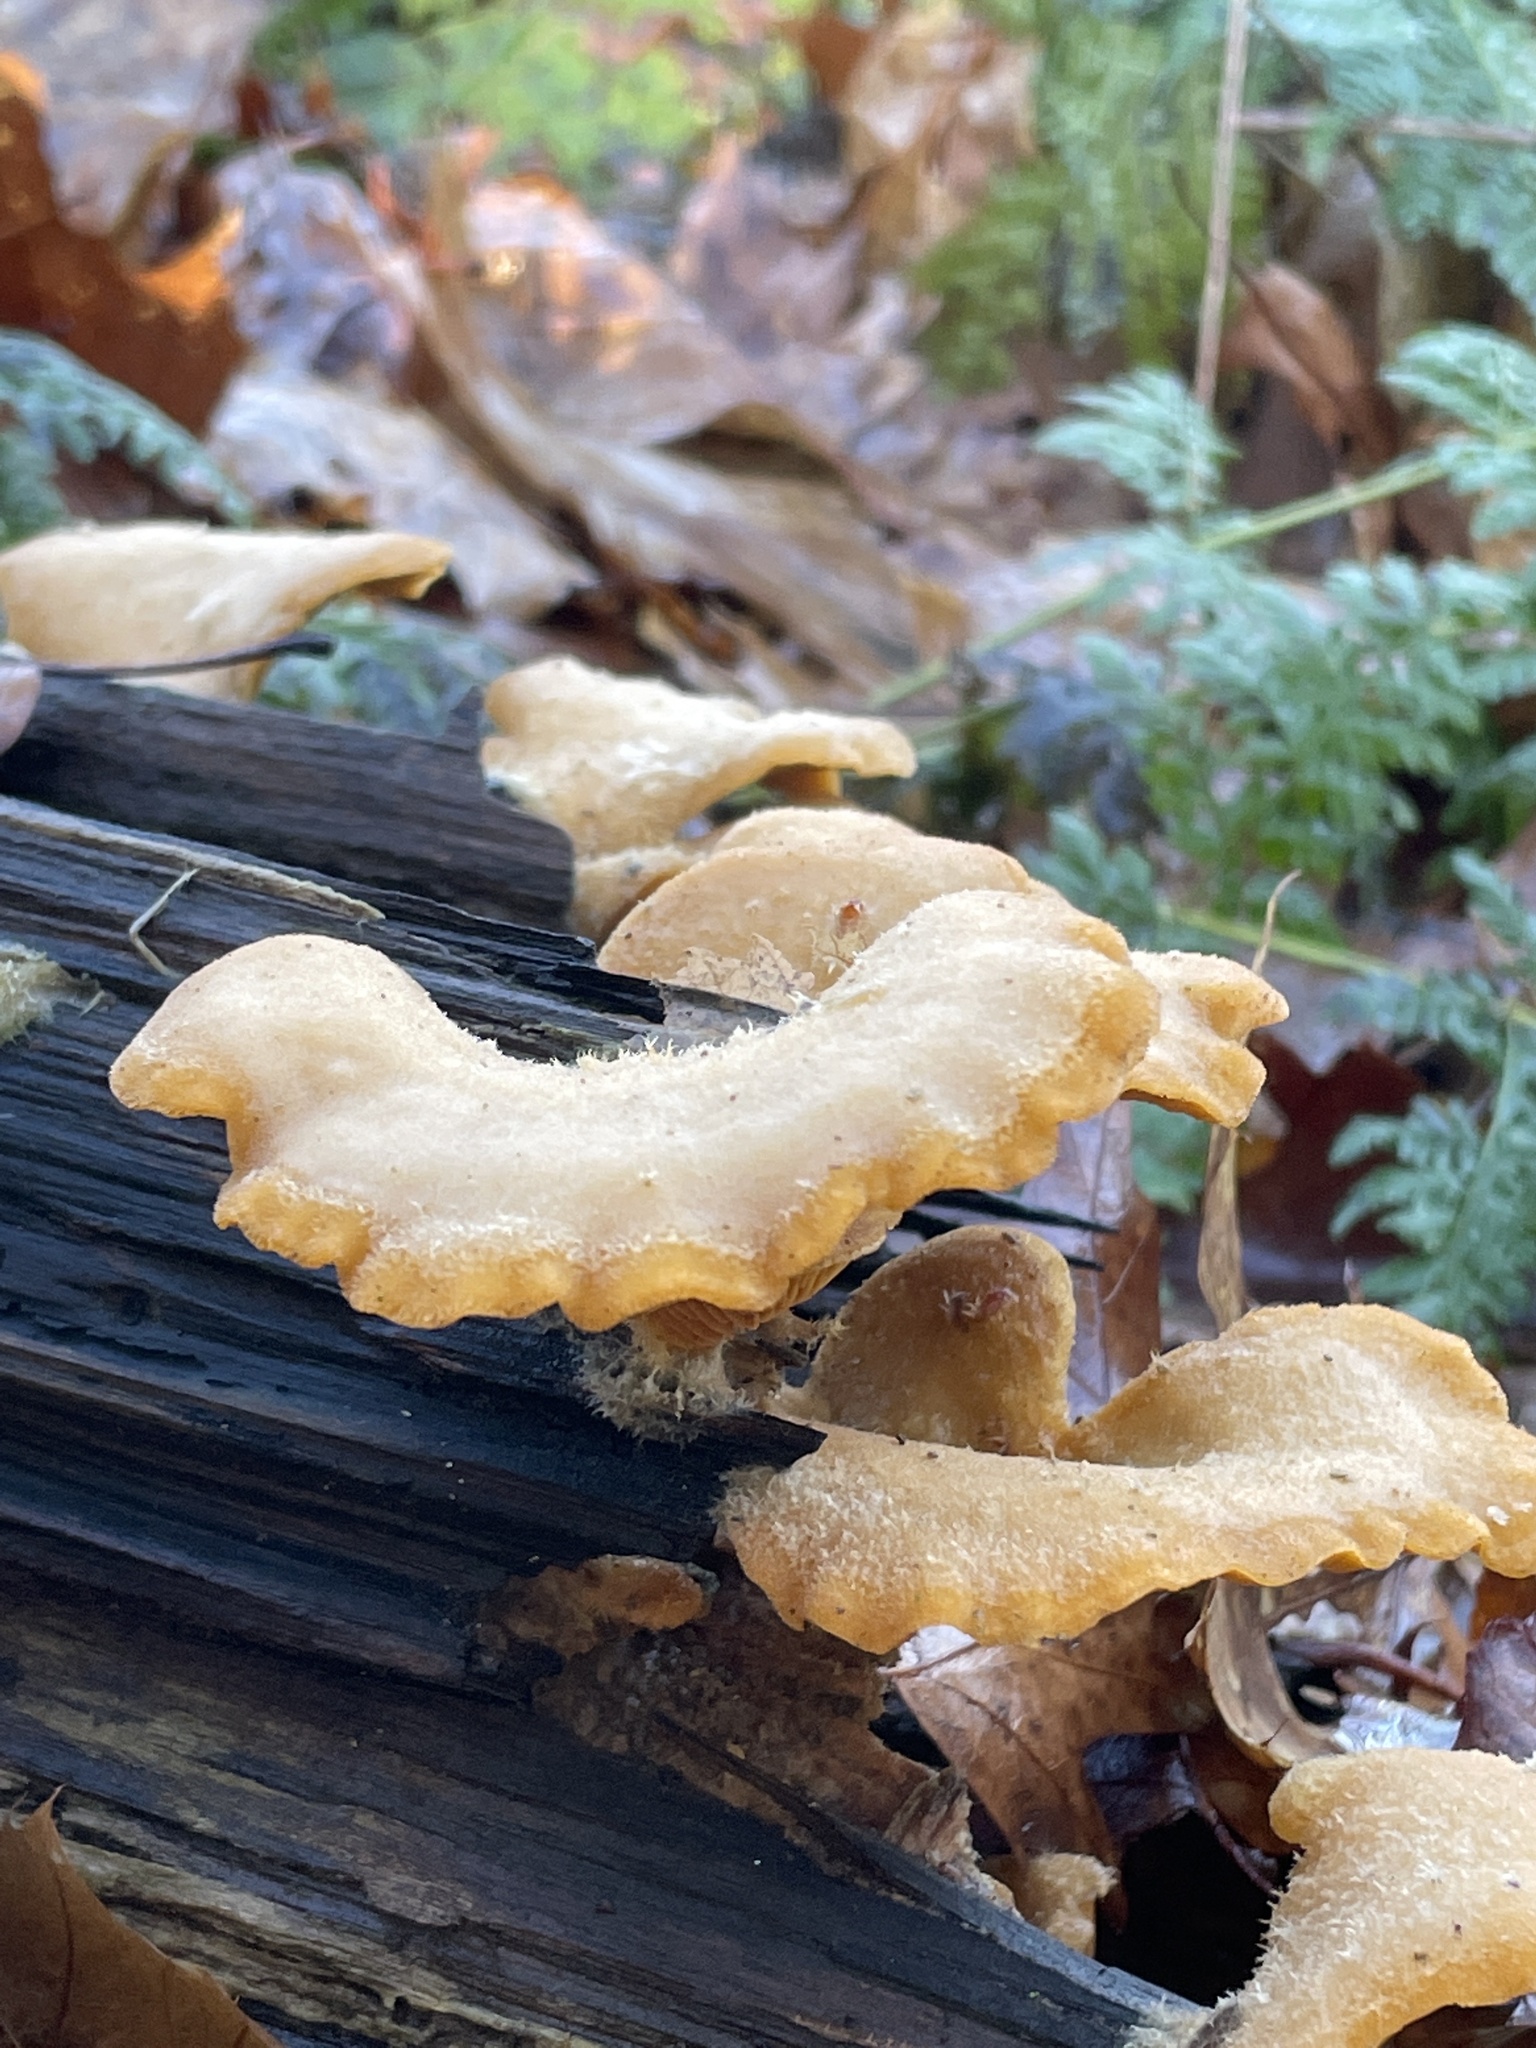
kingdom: Fungi
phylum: Basidiomycota
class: Agaricomycetes
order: Agaricales
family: Phyllotopsidaceae
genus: Phyllotopsis
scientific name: Phyllotopsis nidulans
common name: Orange mock oyster
